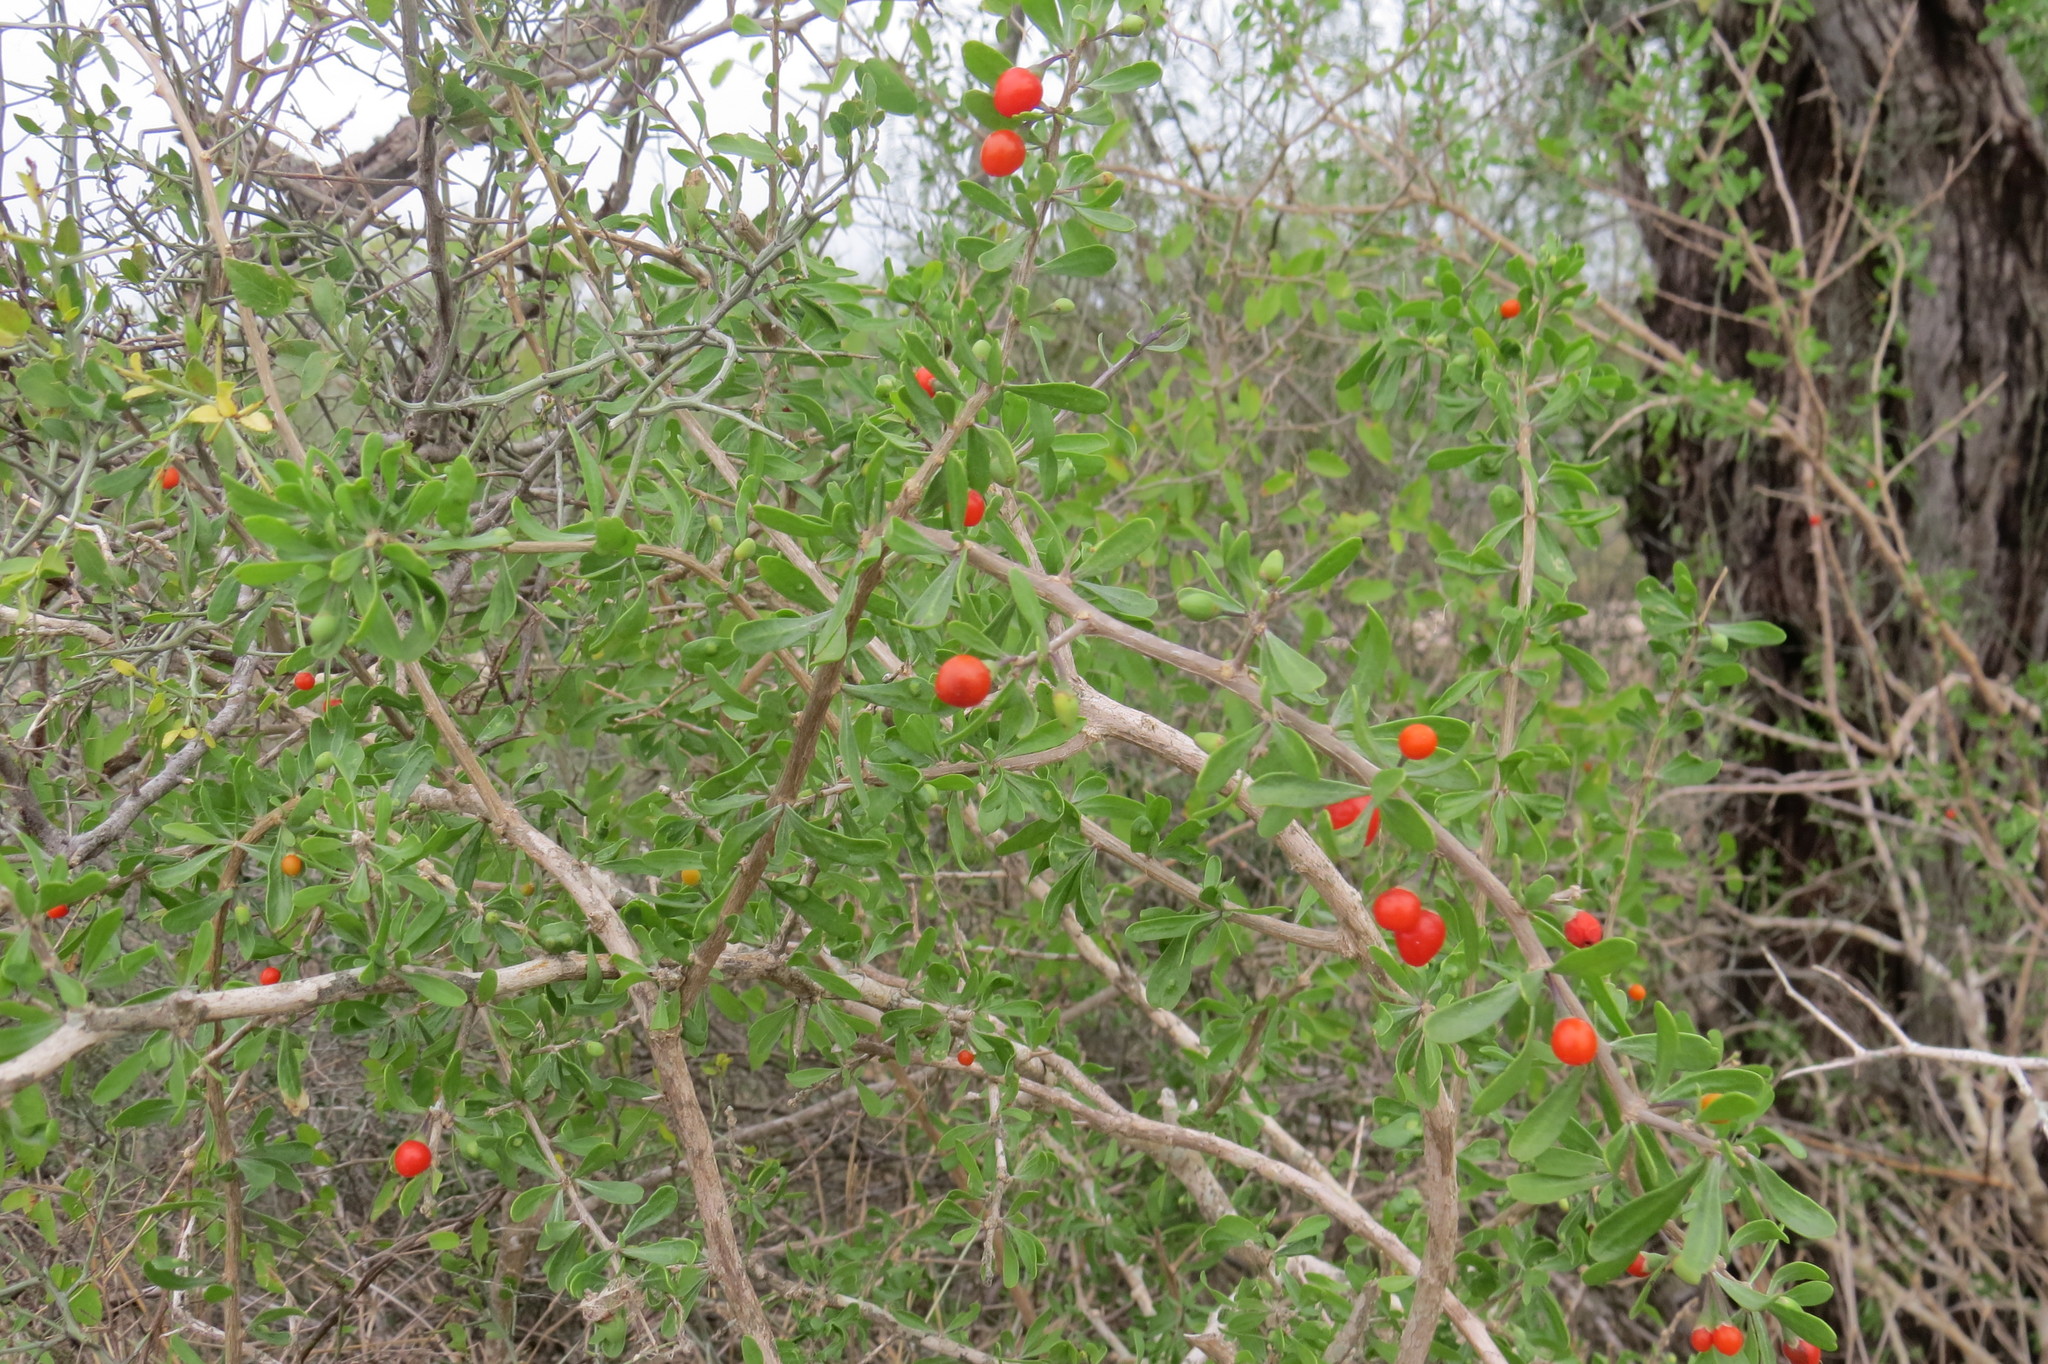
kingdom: Plantae
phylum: Tracheophyta
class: Magnoliopsida
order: Solanales
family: Solanaceae
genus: Lycium
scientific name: Lycium berlandieri
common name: Berlandier wolfberry
